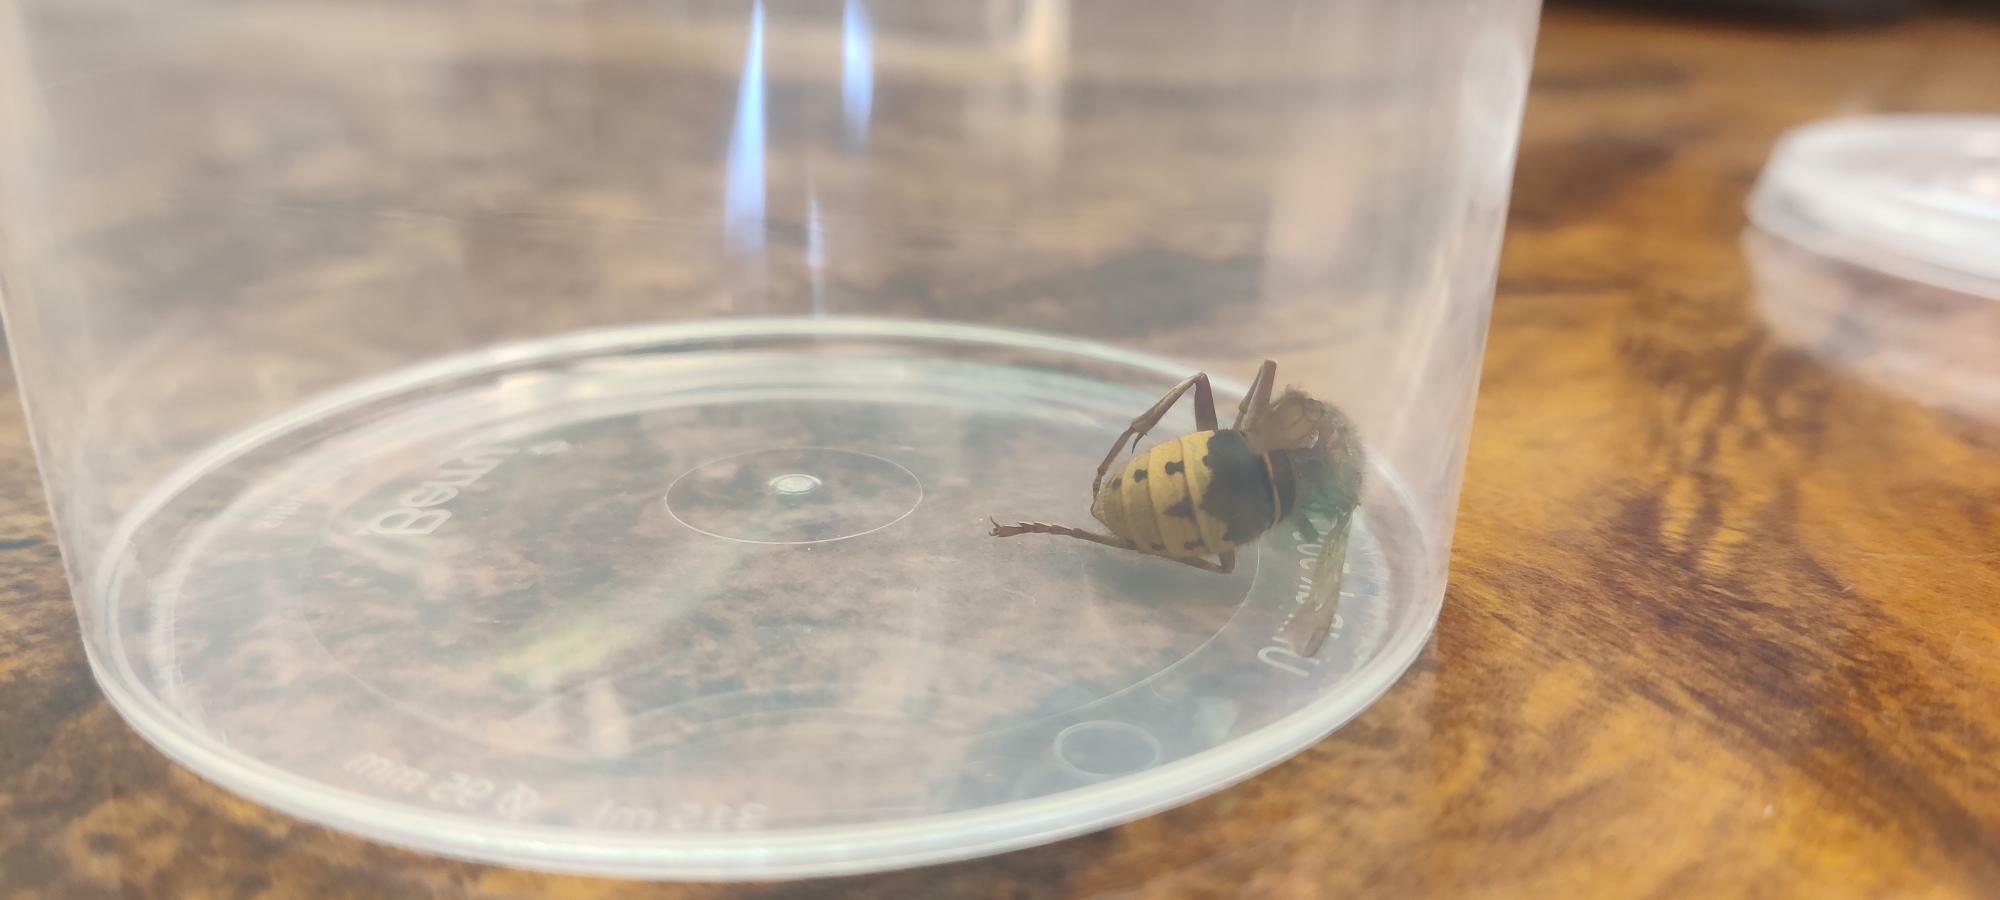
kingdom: Animalia
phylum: Arthropoda
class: Insecta
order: Hymenoptera
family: Vespidae
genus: Vespa
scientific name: Vespa crabro
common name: Hornet
